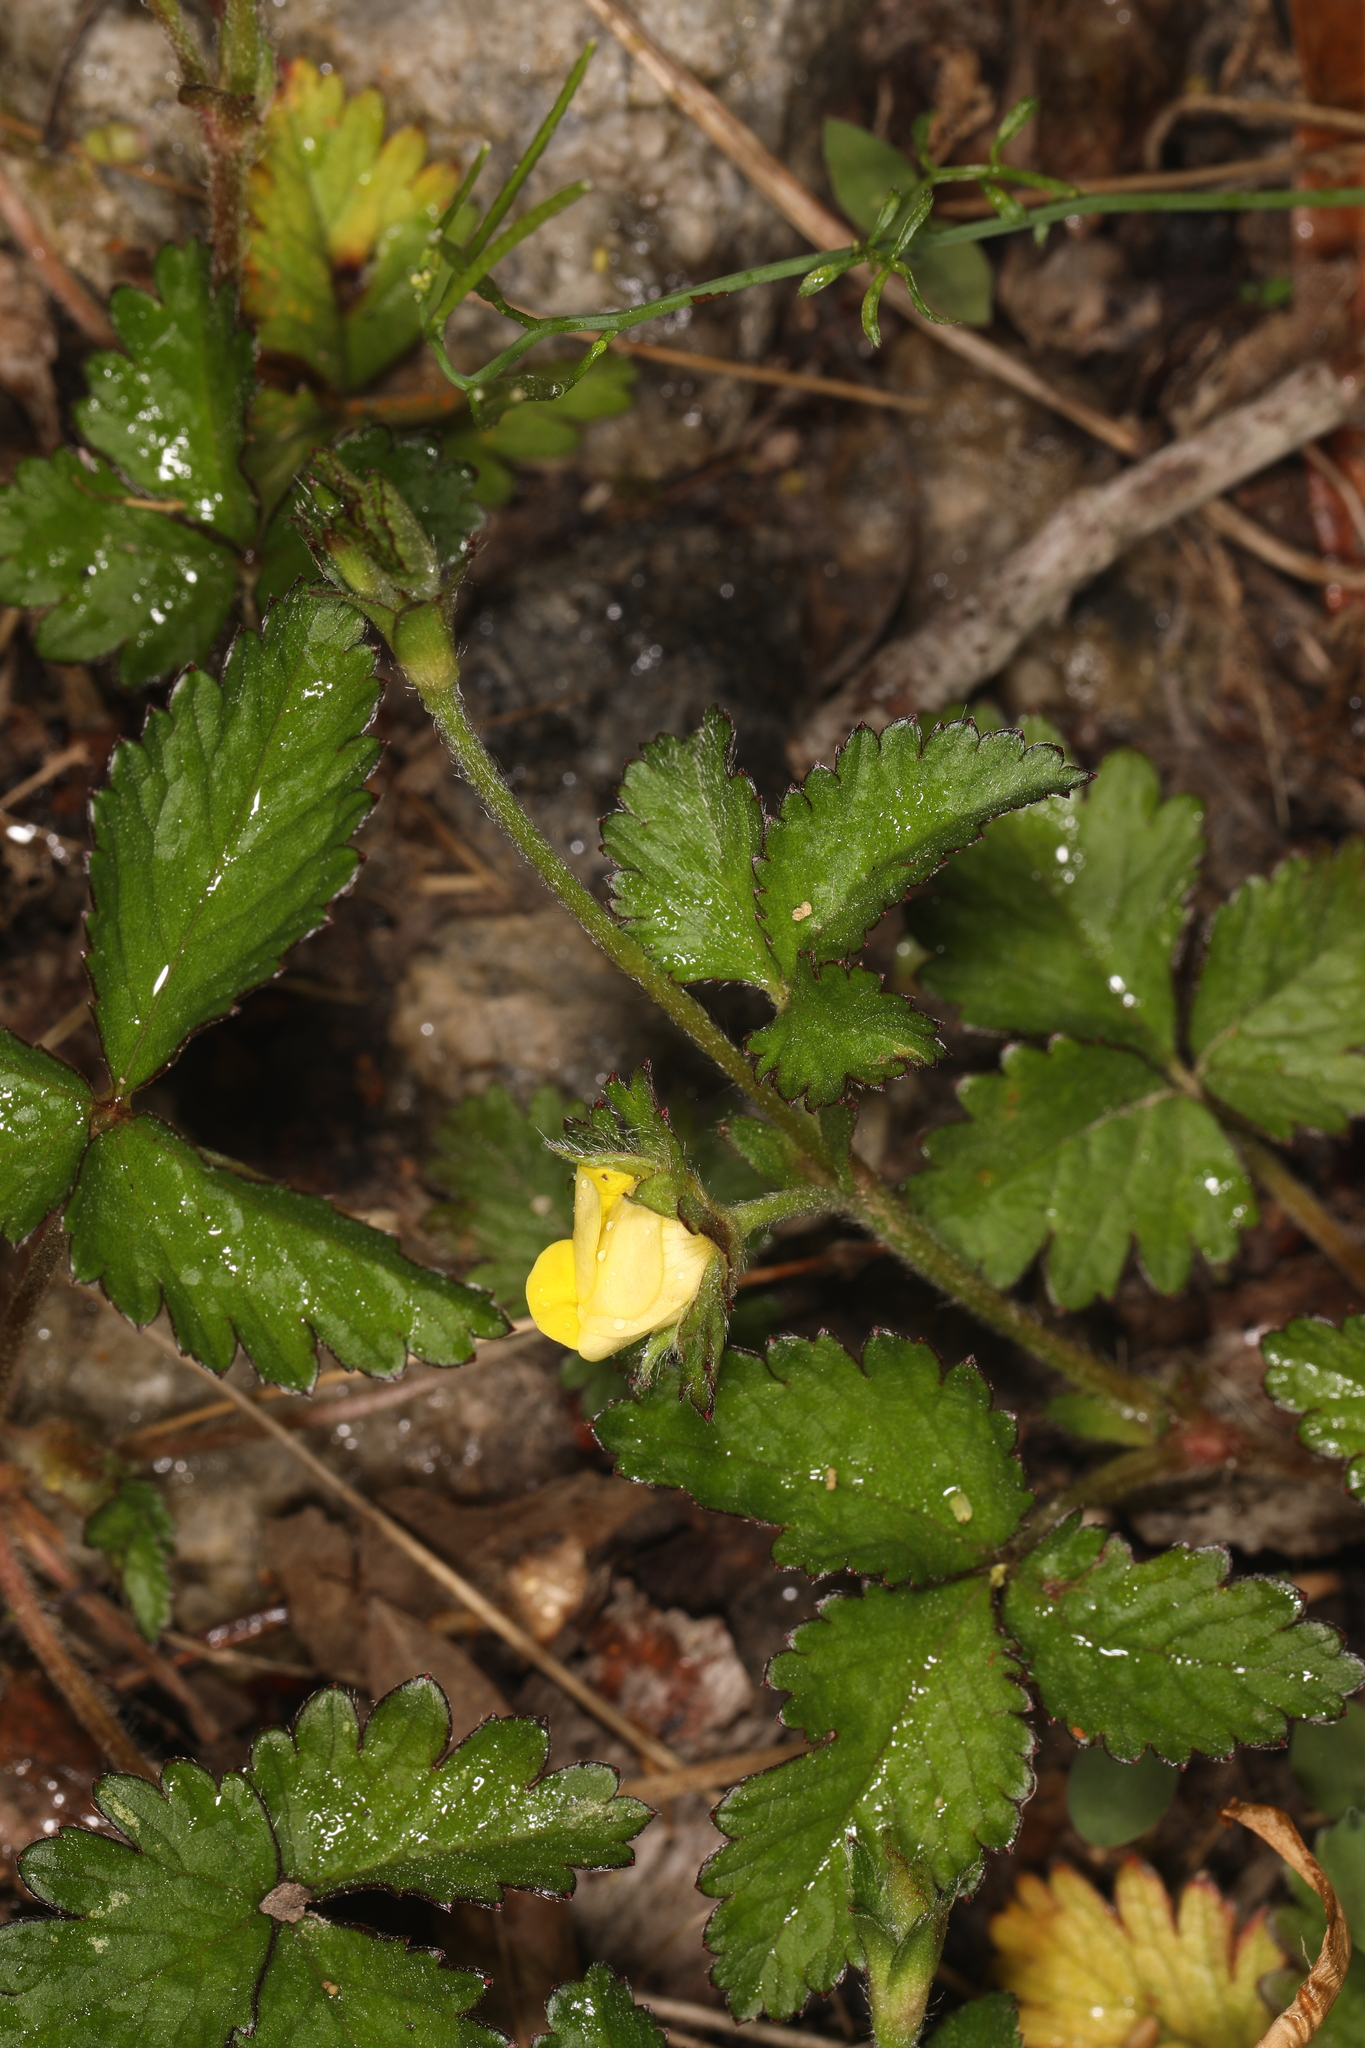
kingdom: Plantae
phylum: Tracheophyta
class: Magnoliopsida
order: Rosales
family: Rosaceae
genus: Potentilla
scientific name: Potentilla indica
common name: Yellow-flowered strawberry
